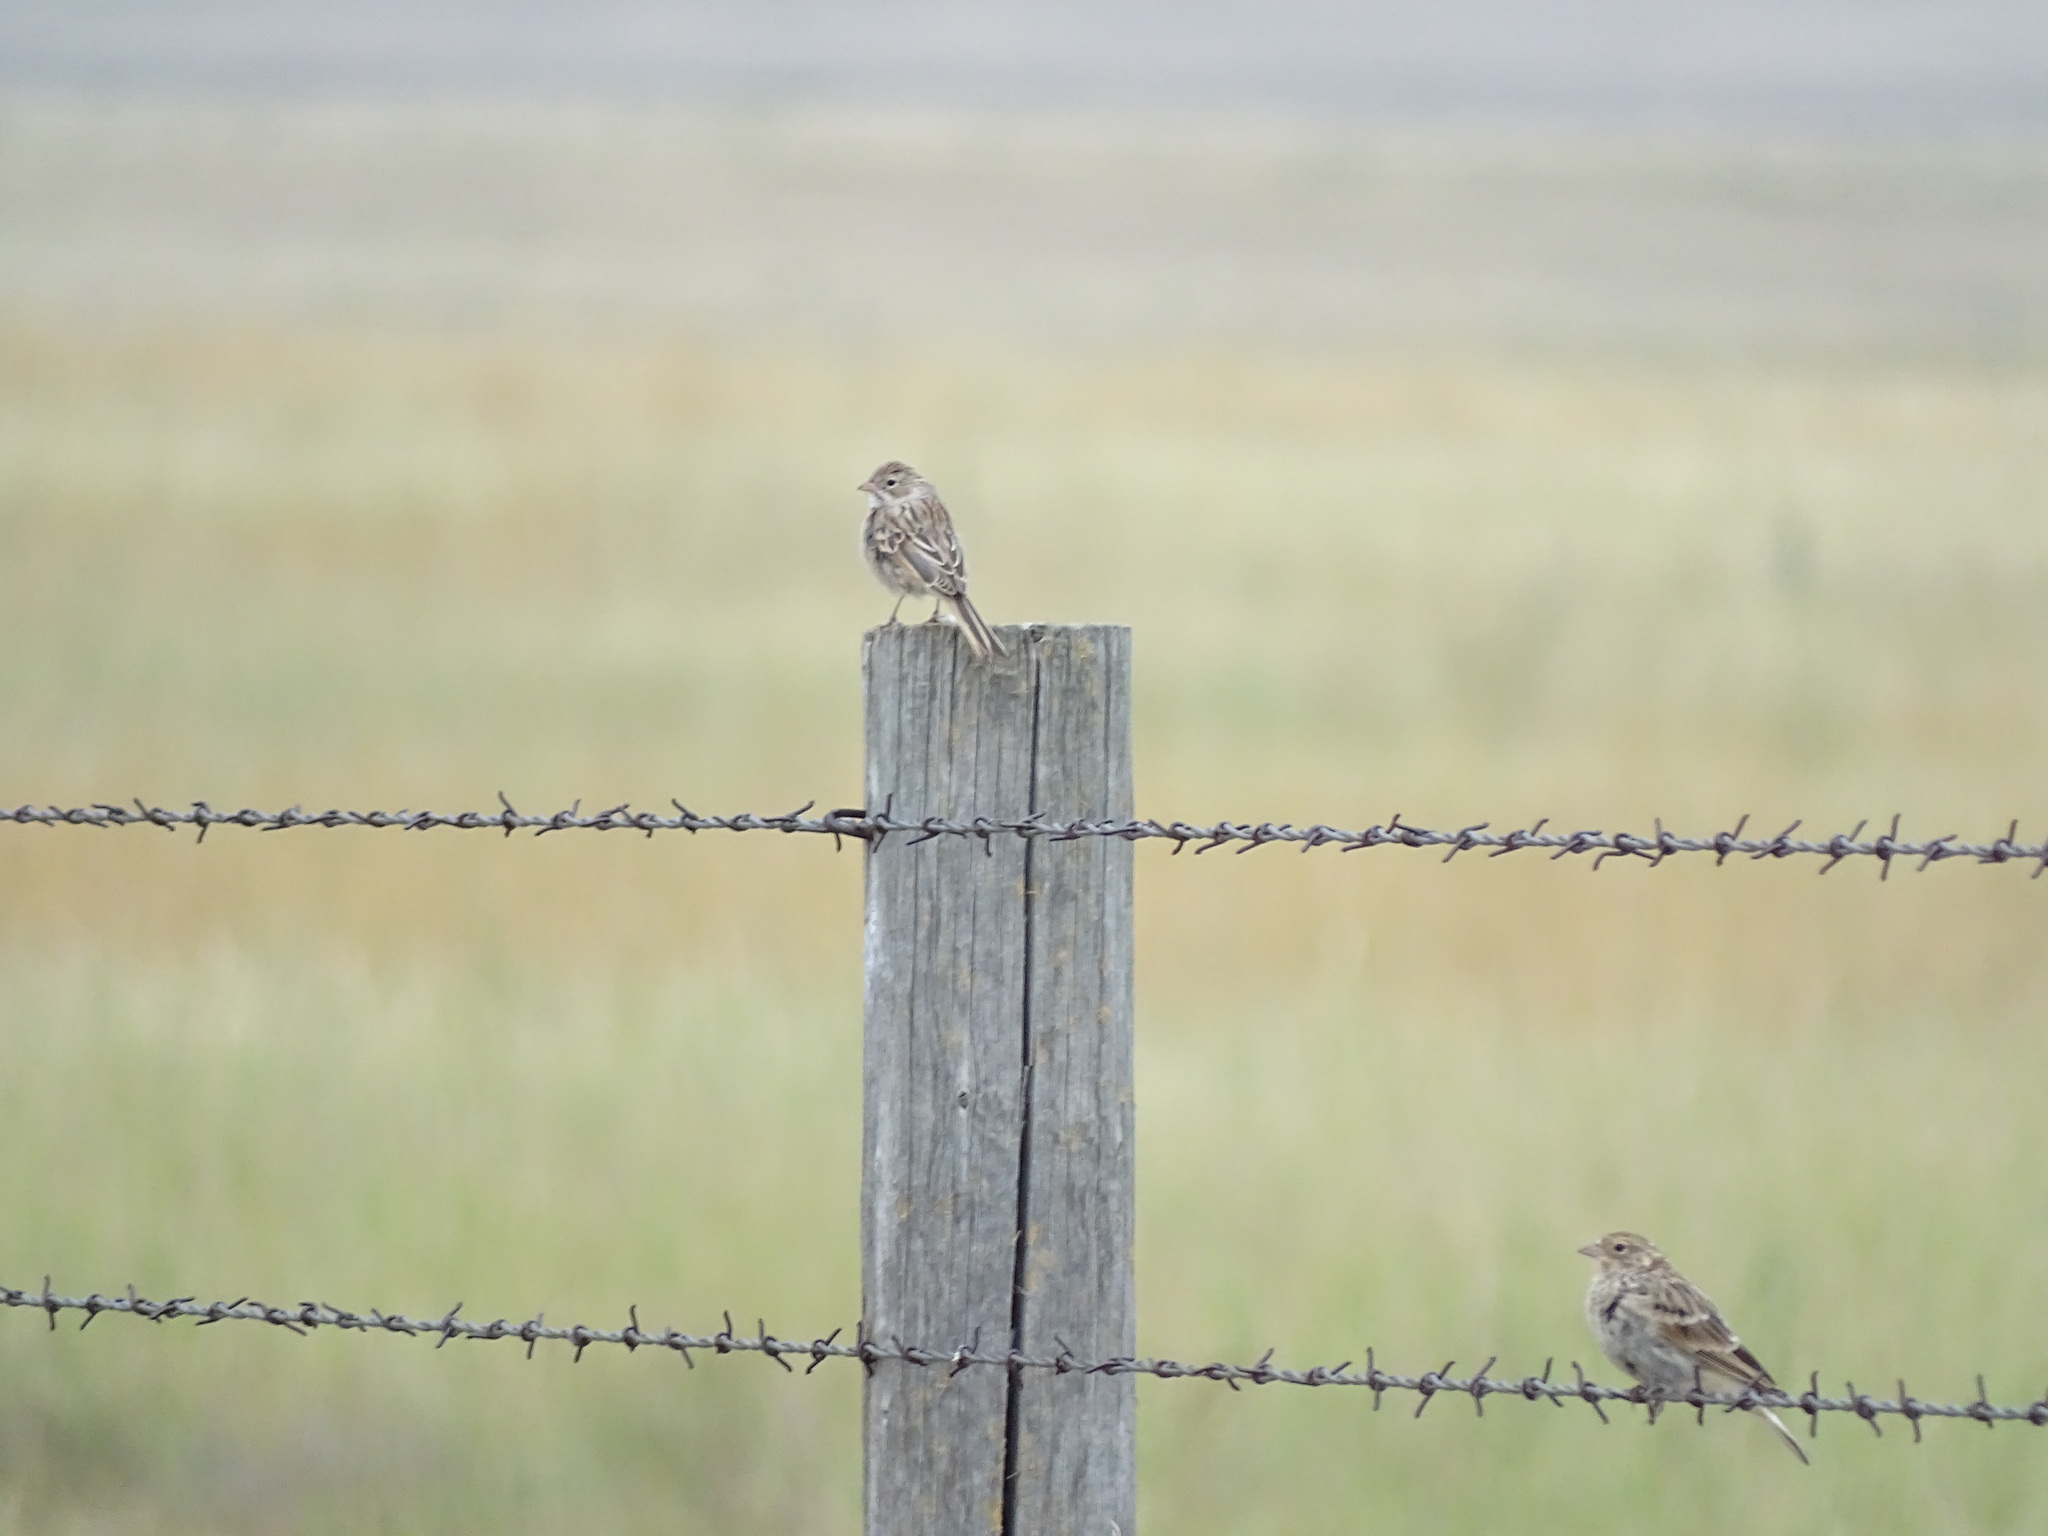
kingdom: Animalia
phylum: Chordata
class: Aves
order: Passeriformes
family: Passerellidae
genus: Spizella
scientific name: Spizella breweri
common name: Brewer's sparrow
